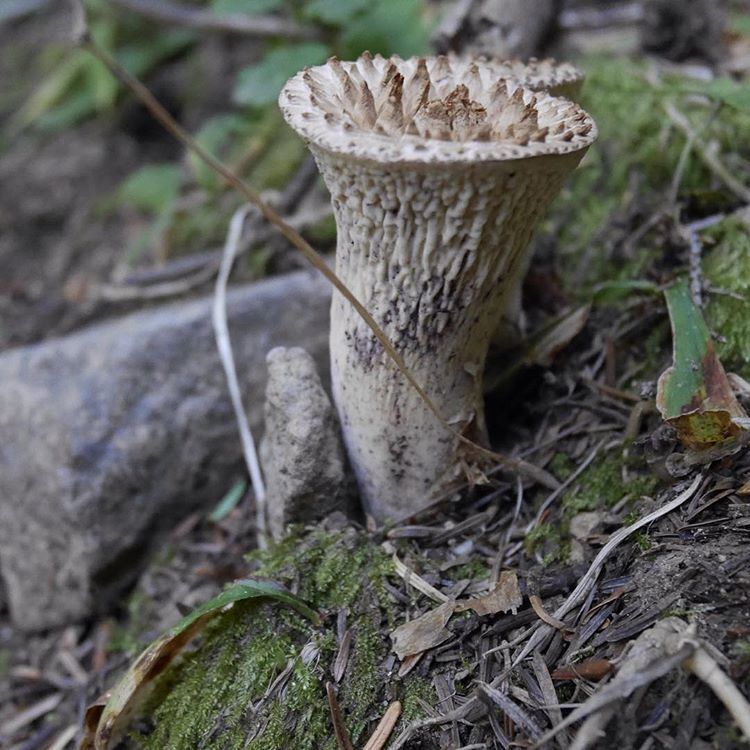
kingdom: Fungi
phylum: Basidiomycota
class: Agaricomycetes
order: Gomphales
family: Gomphaceae
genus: Turbinellus
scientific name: Turbinellus kauffmanii
